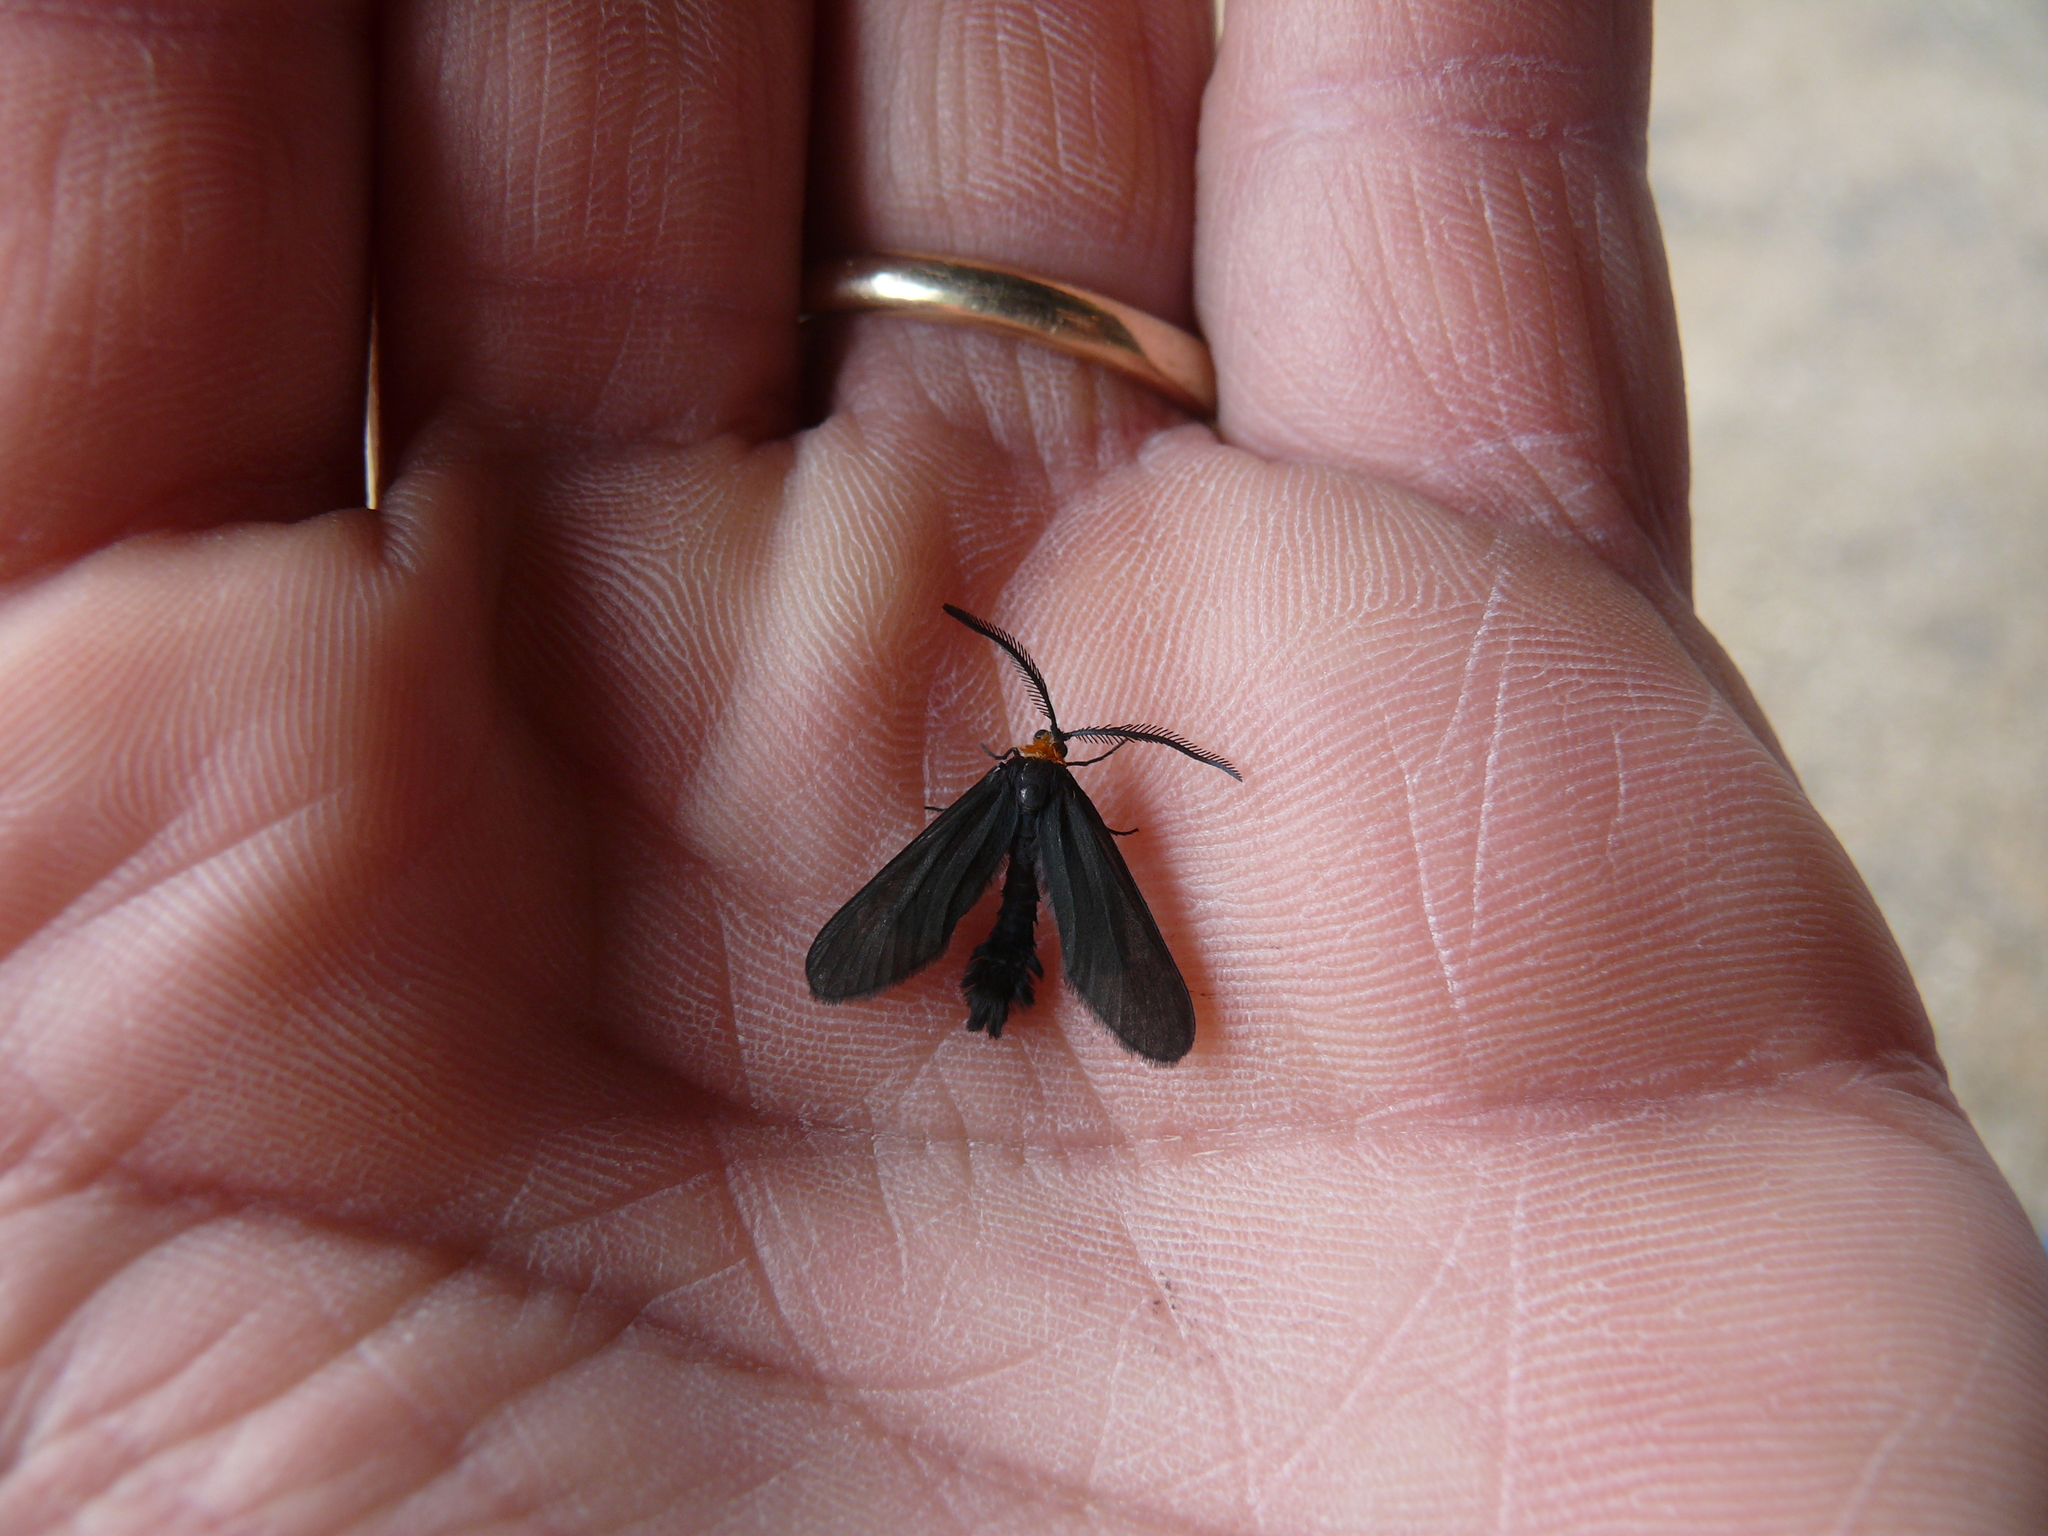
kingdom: Animalia
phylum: Arthropoda
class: Insecta
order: Lepidoptera
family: Zygaenidae
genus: Harrisina
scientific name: Harrisina americana
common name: Grapeleaf skeletonizer moth
